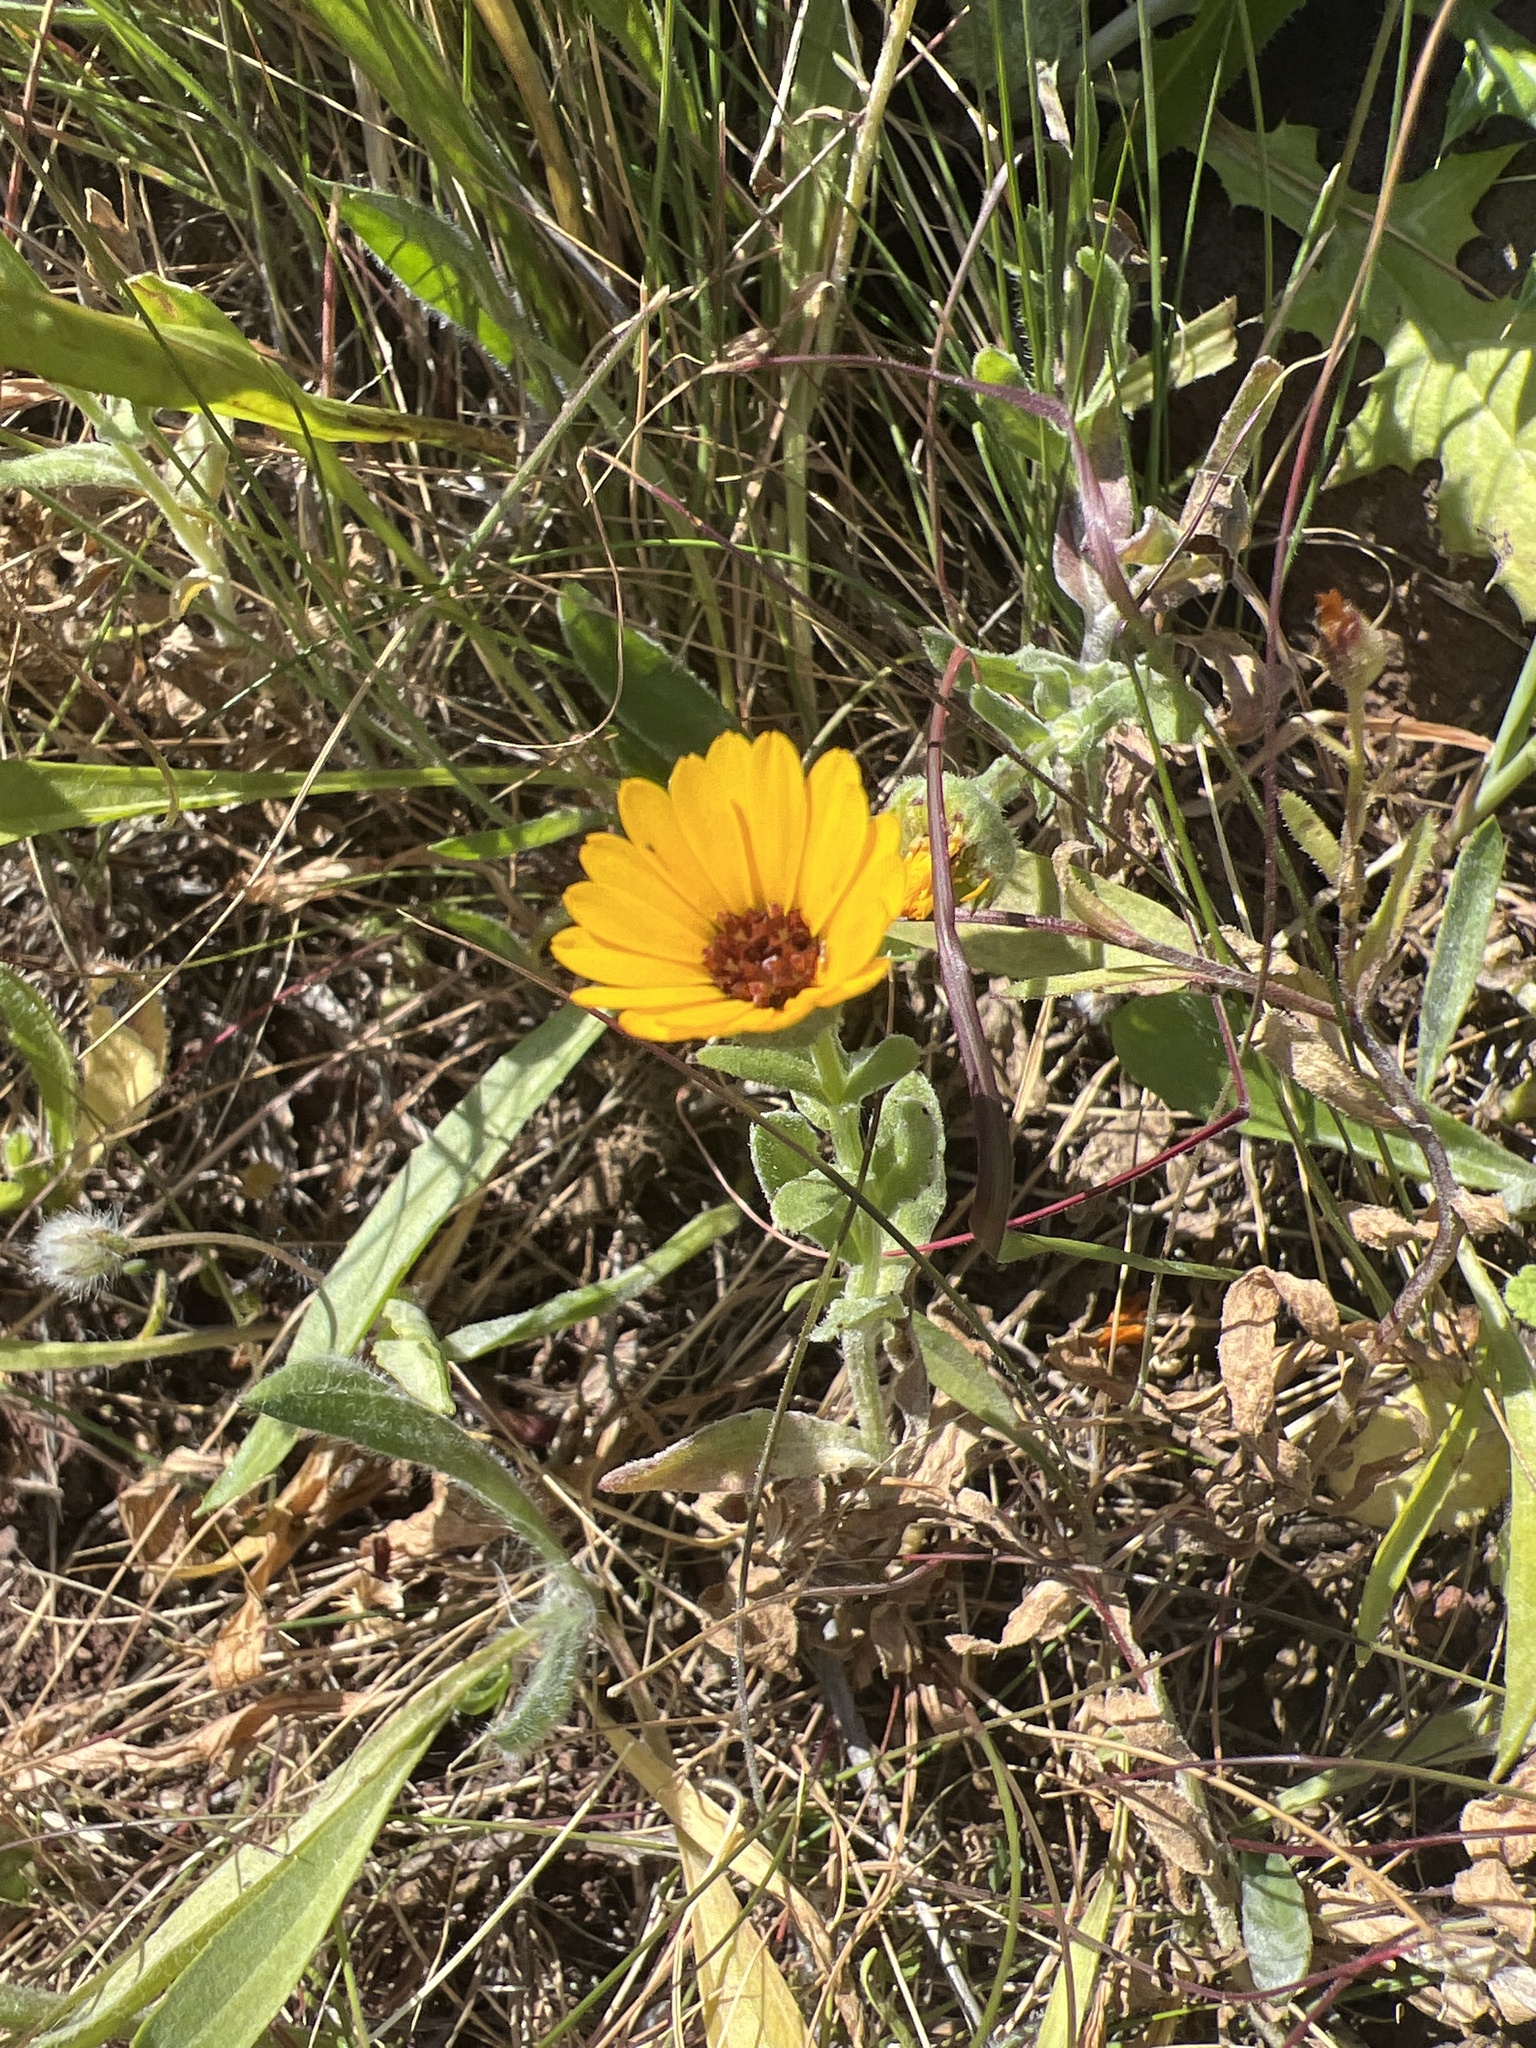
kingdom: Plantae
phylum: Tracheophyta
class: Magnoliopsida
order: Asterales
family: Asteraceae
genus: Calendula
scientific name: Calendula arvensis
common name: Field marigold
